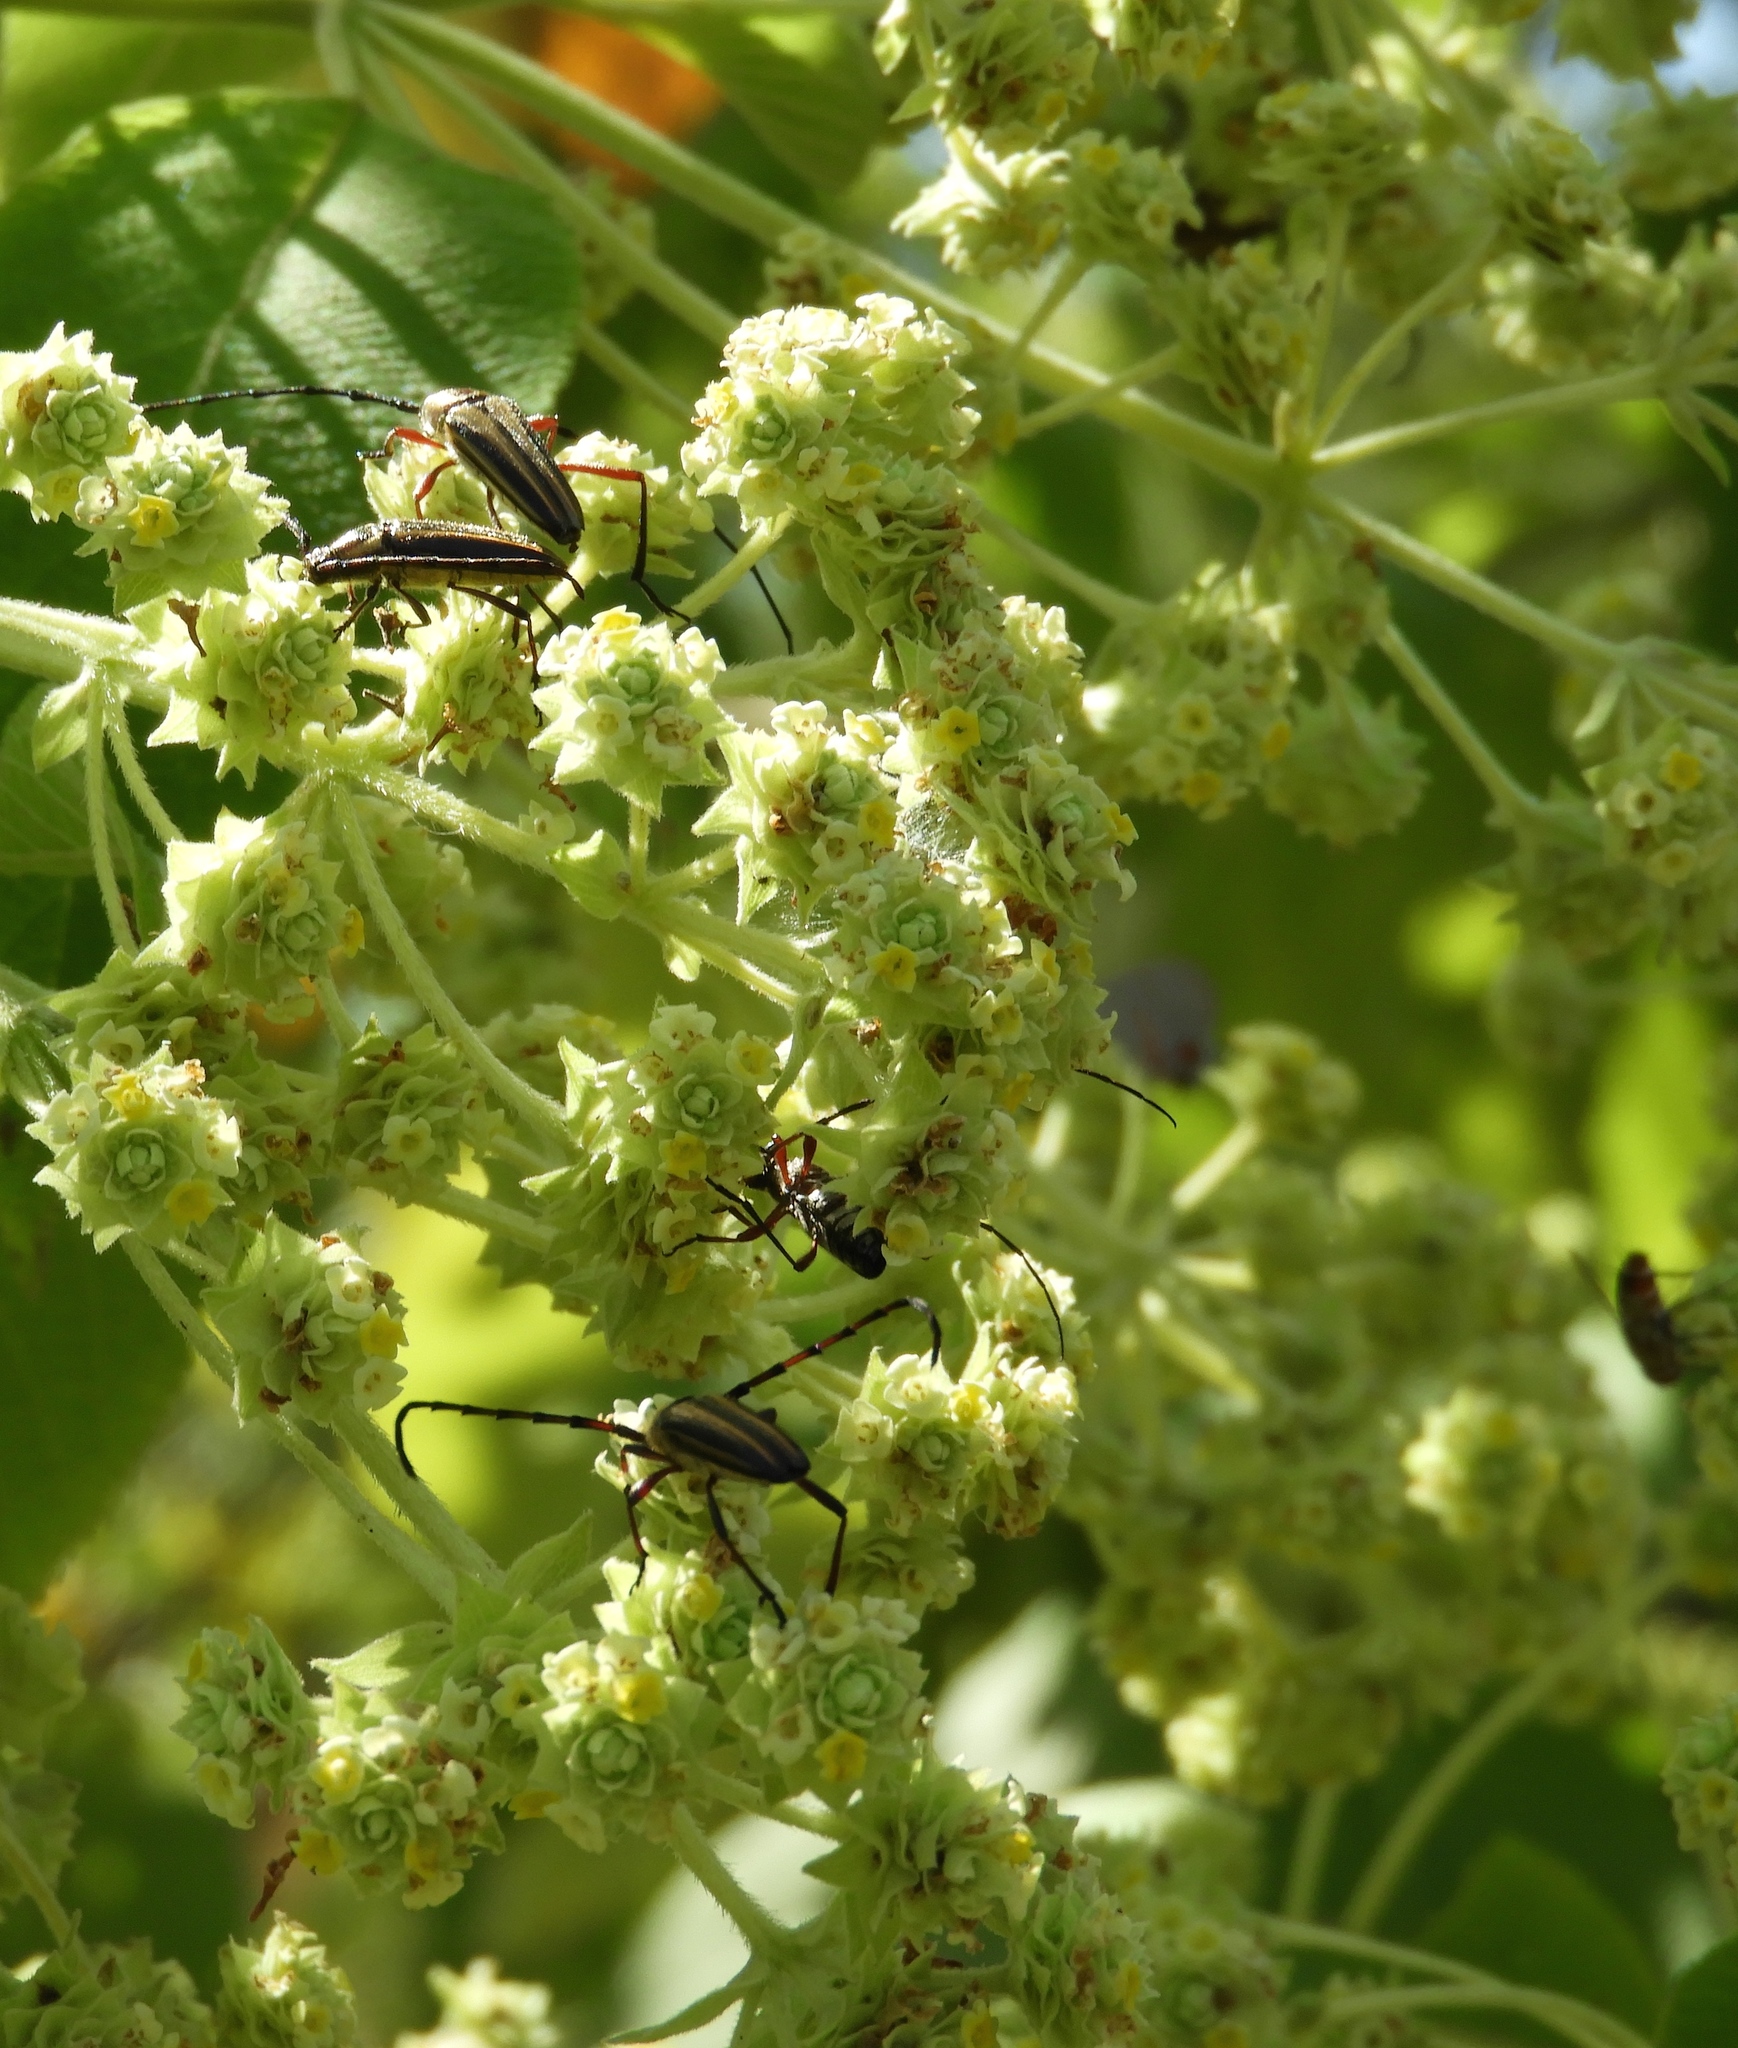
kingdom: Animalia
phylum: Arthropoda
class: Insecta
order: Coleoptera
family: Cerambycidae
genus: Sphaenothecus
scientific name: Sphaenothecus maccartyi
